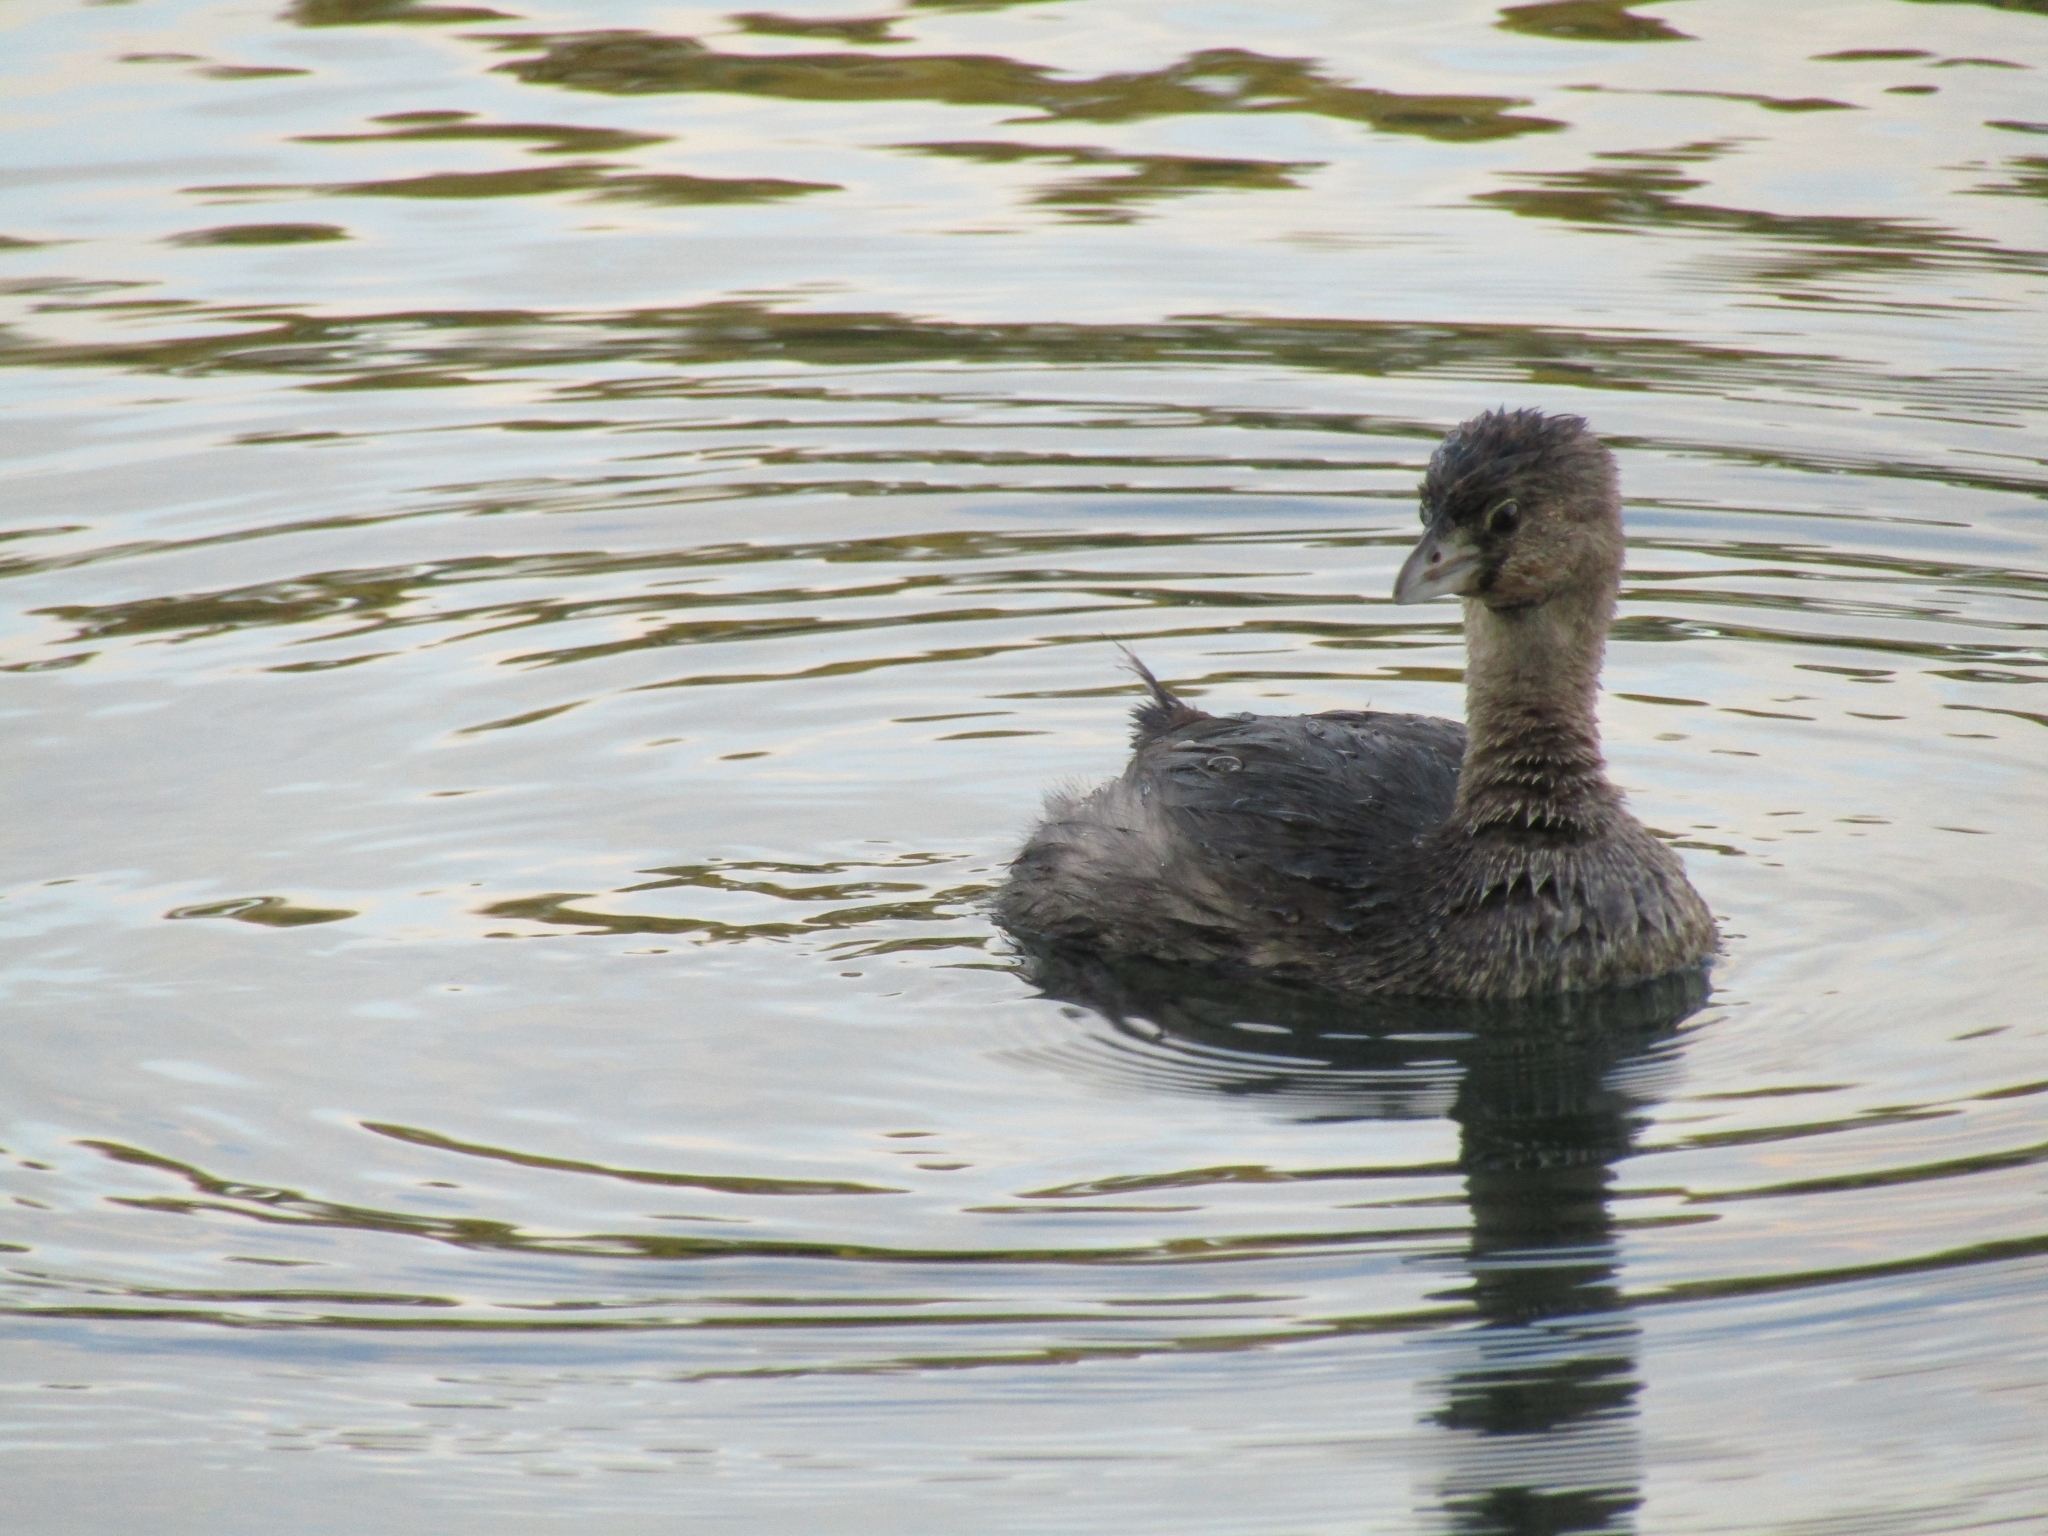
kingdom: Animalia
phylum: Chordata
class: Aves
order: Podicipediformes
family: Podicipedidae
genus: Podilymbus
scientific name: Podilymbus podiceps
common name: Pied-billed grebe
